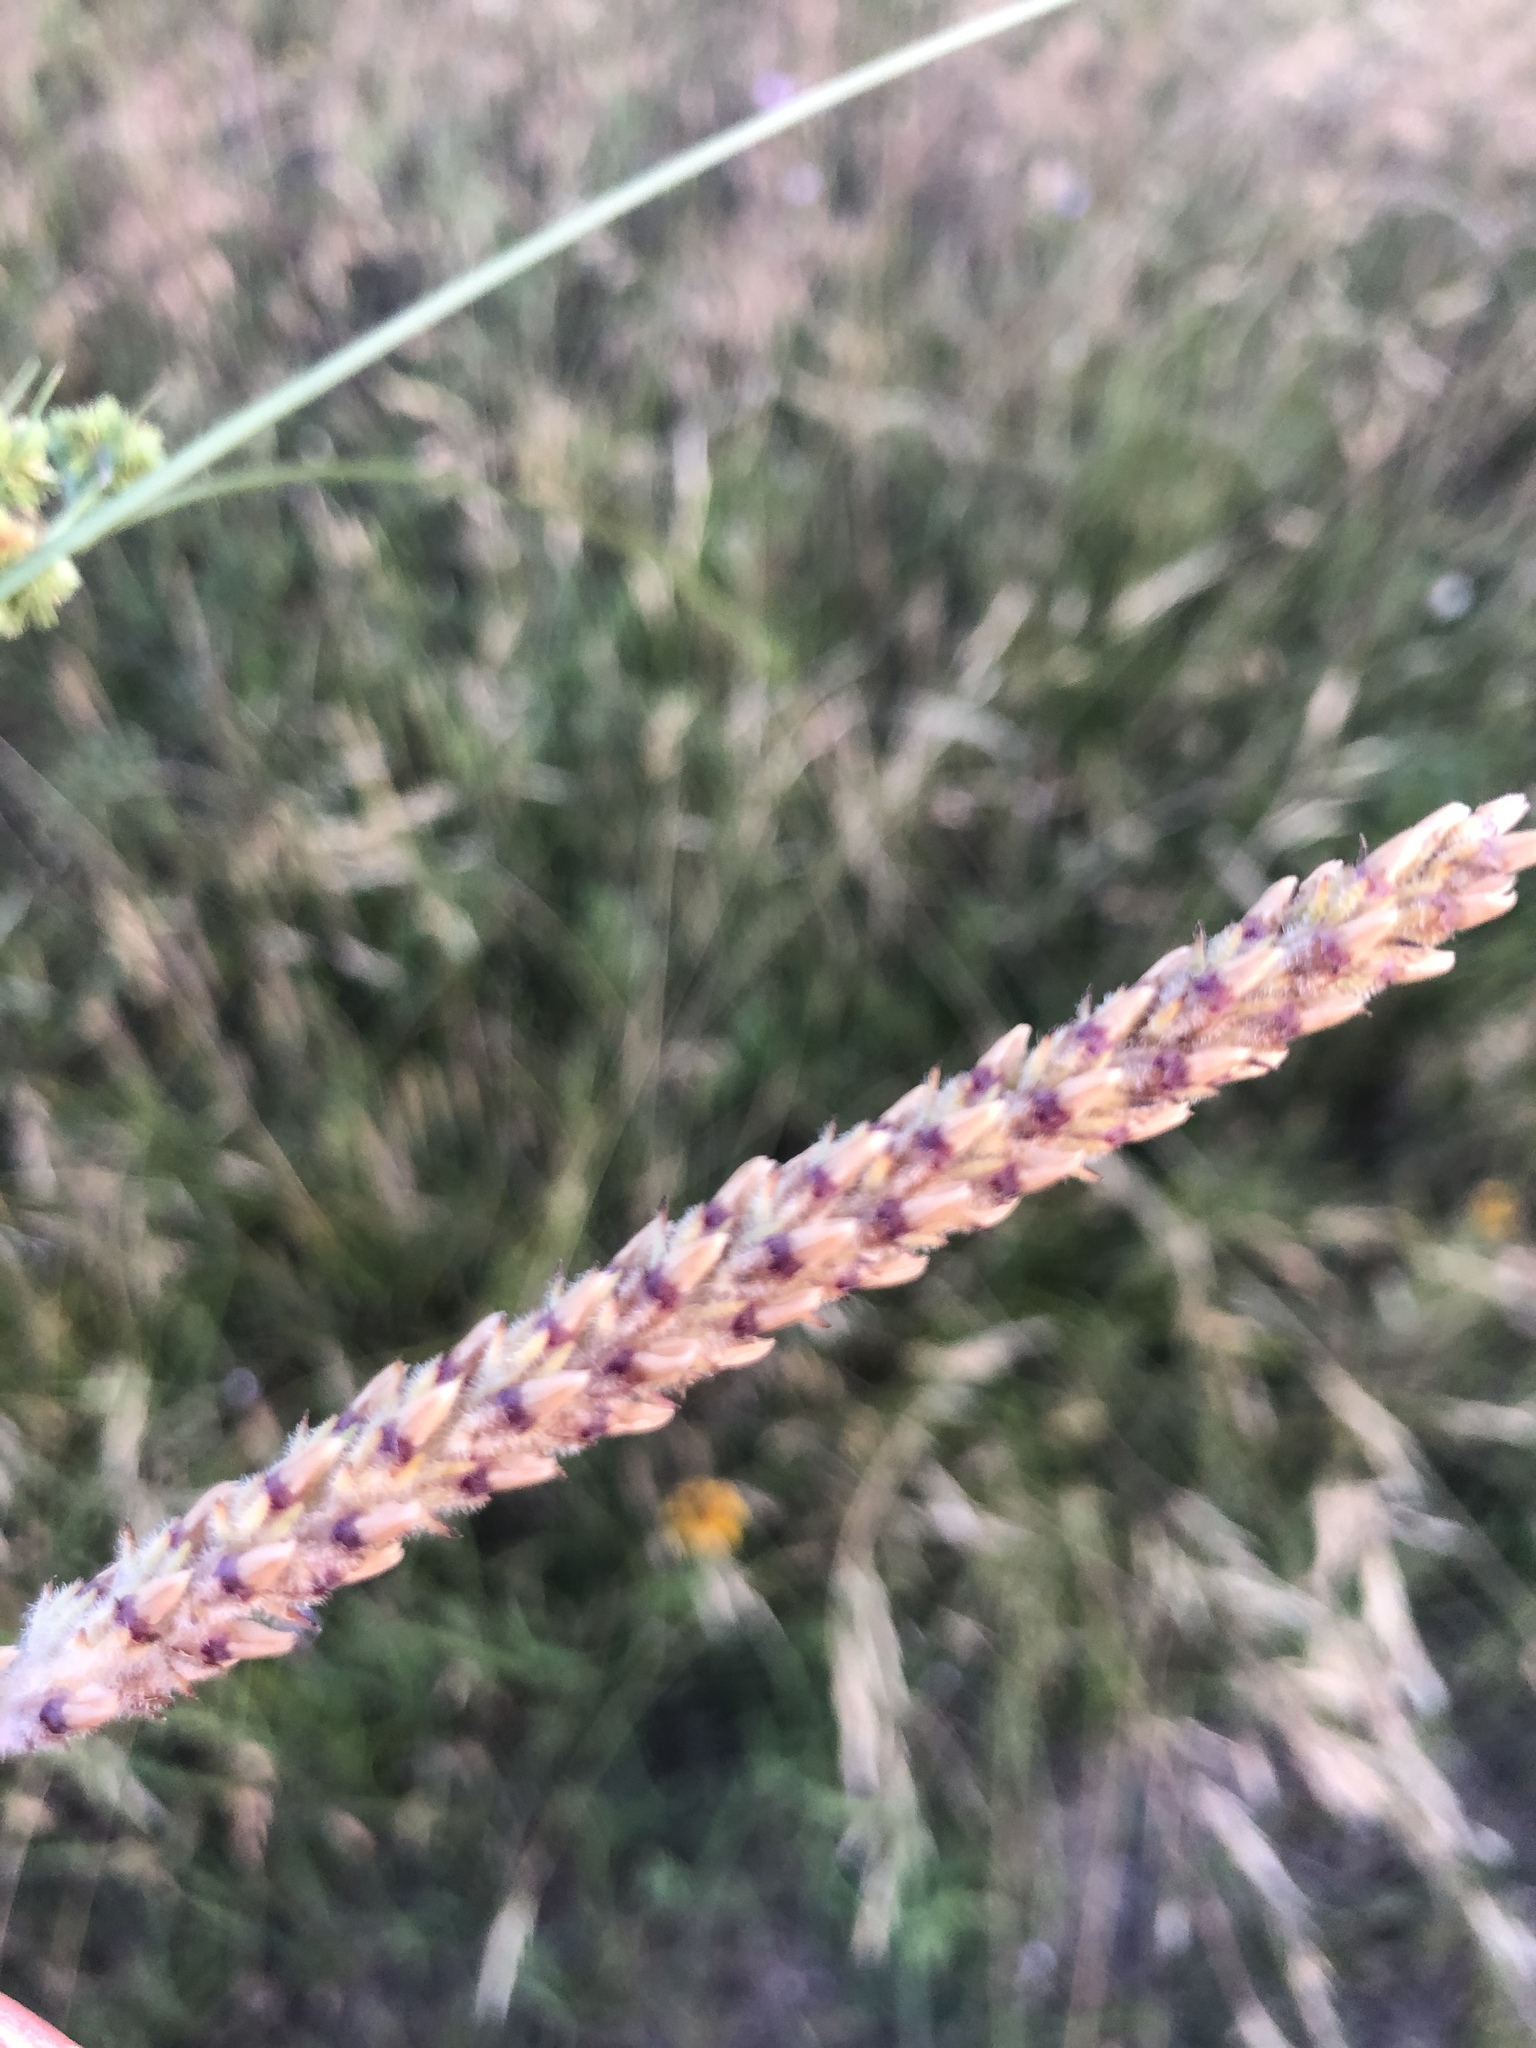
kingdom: Plantae
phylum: Tracheophyta
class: Magnoliopsida
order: Lamiales
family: Plantaginaceae
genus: Plantago
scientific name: Plantago rhodosperma
